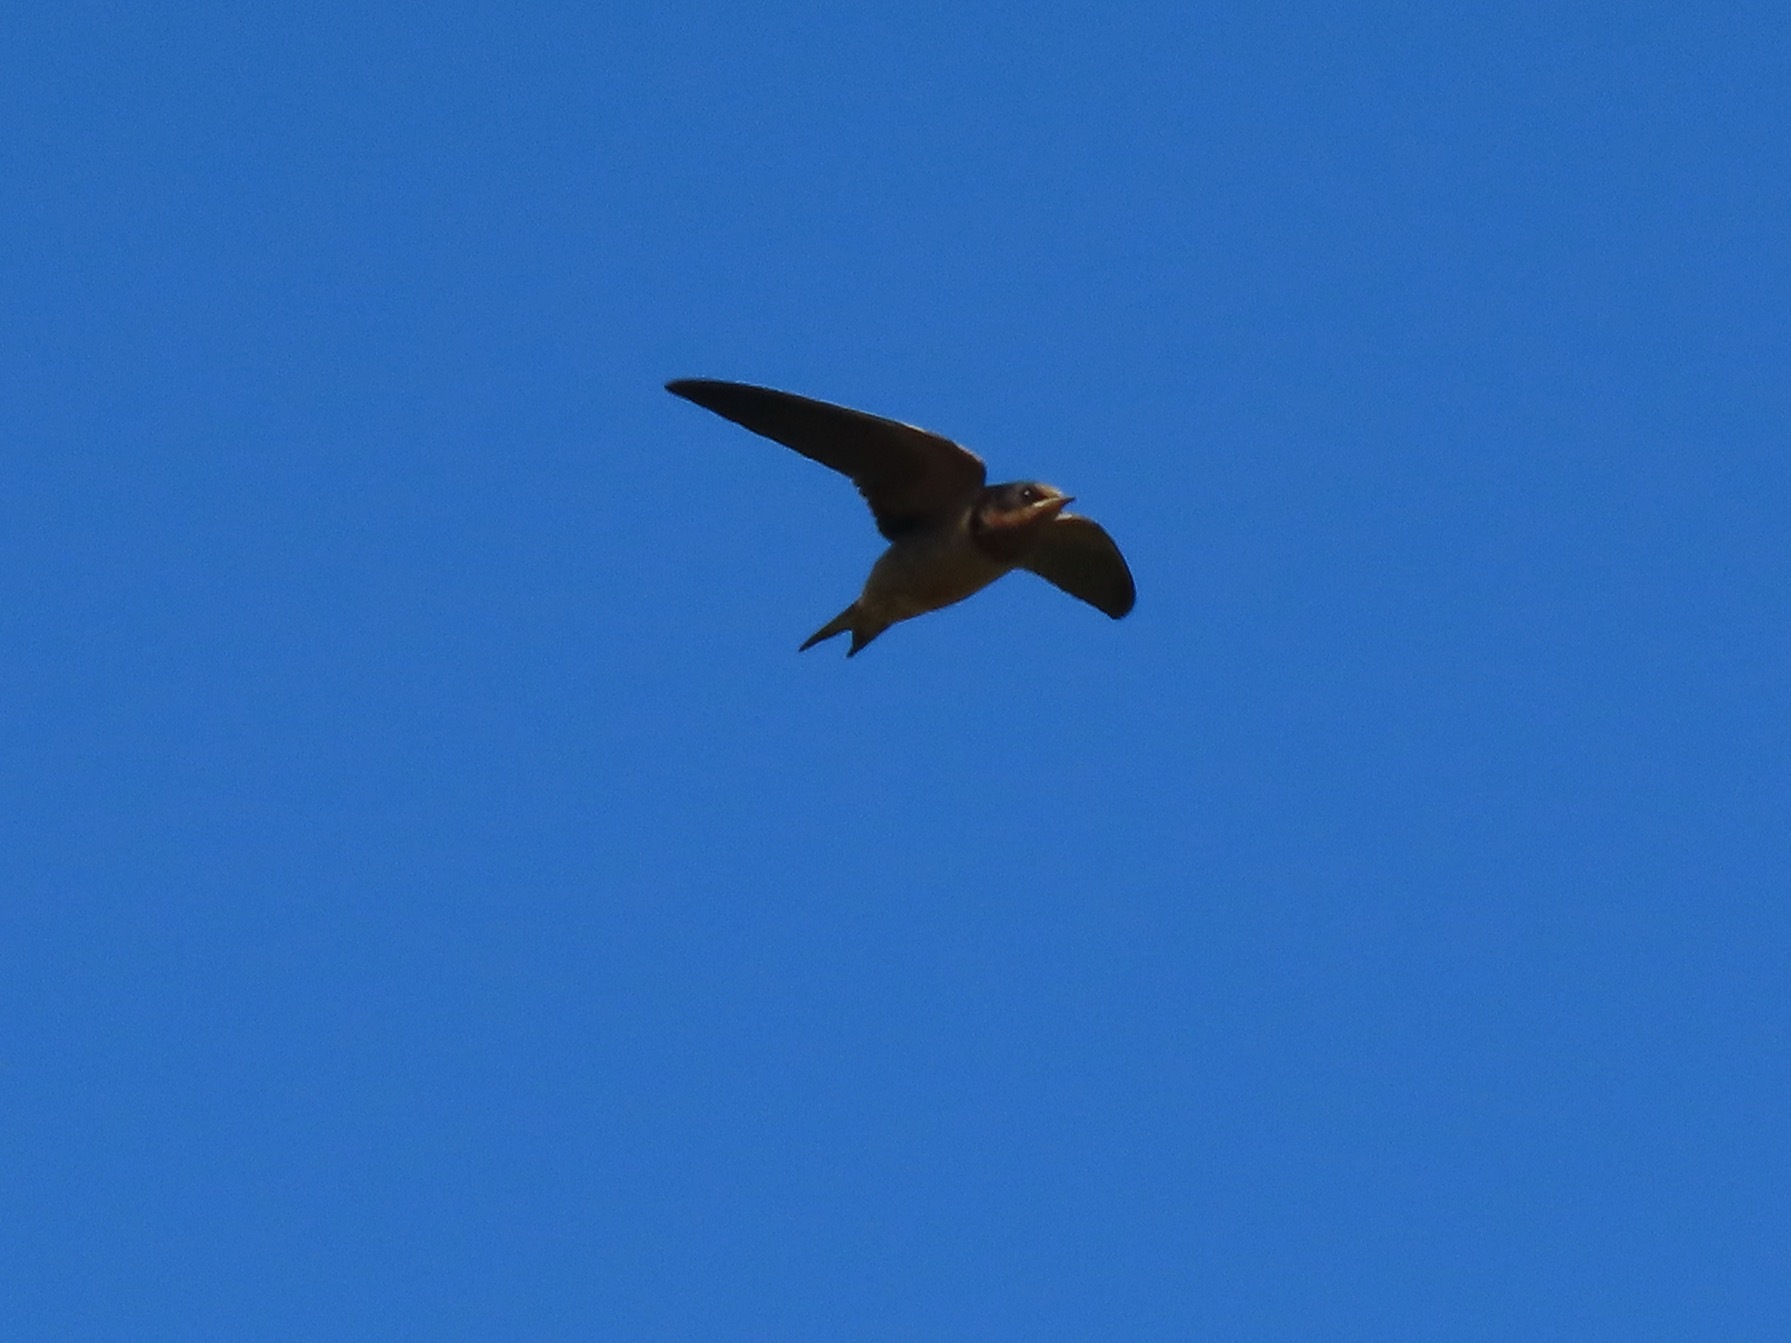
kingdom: Animalia
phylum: Chordata
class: Aves
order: Passeriformes
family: Hirundinidae
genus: Hirundo
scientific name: Hirundo rustica
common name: Barn swallow
